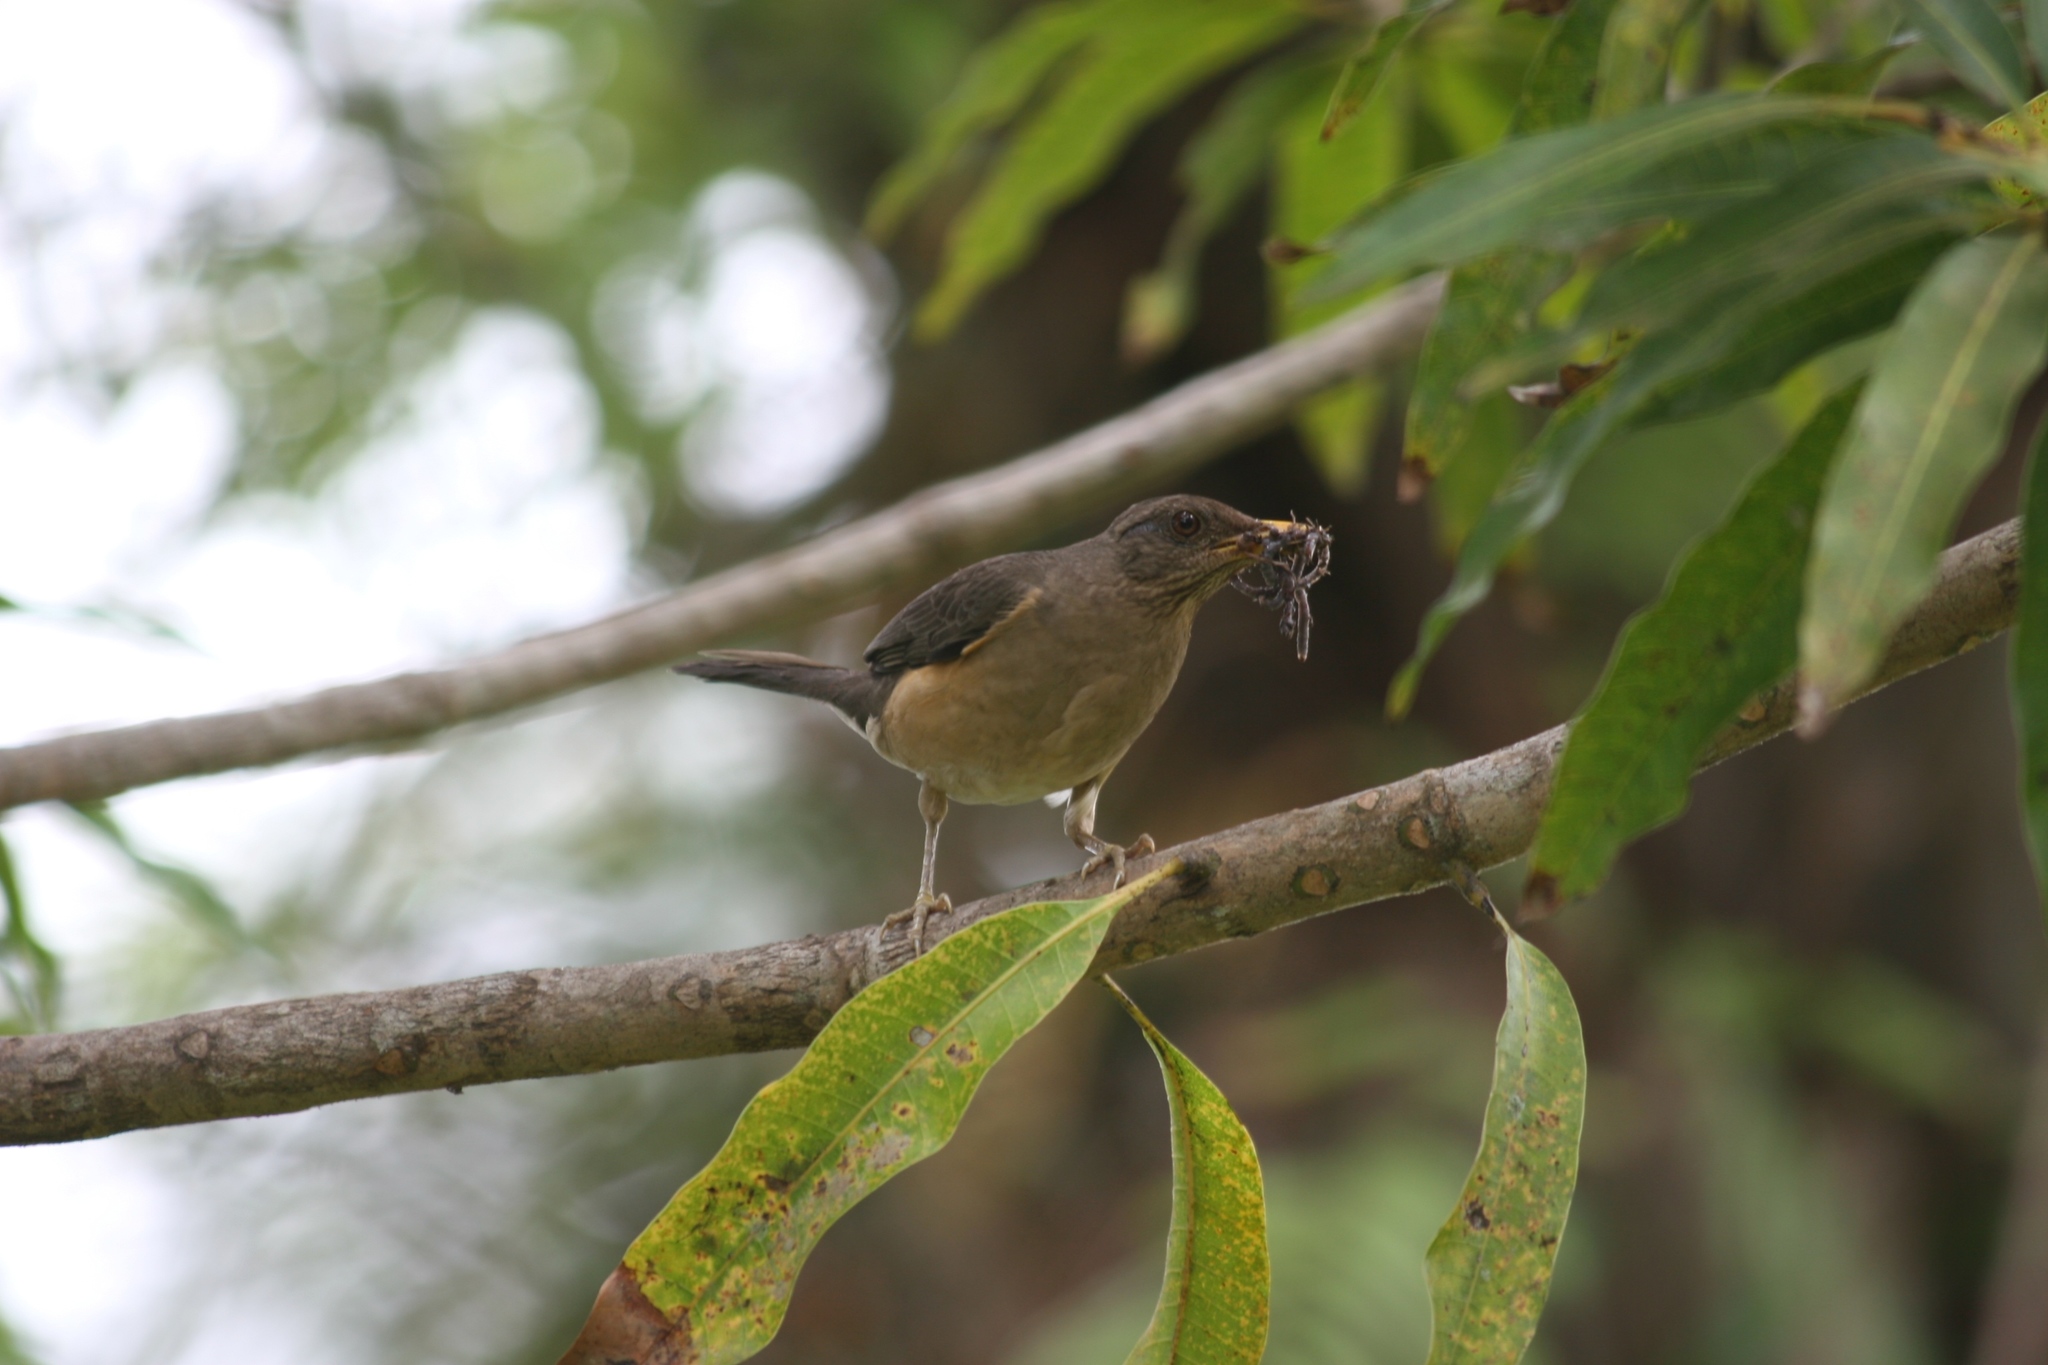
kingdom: Animalia
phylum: Chordata
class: Aves
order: Passeriformes
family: Turdidae
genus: Turdus
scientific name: Turdus pelios
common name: African thrush
